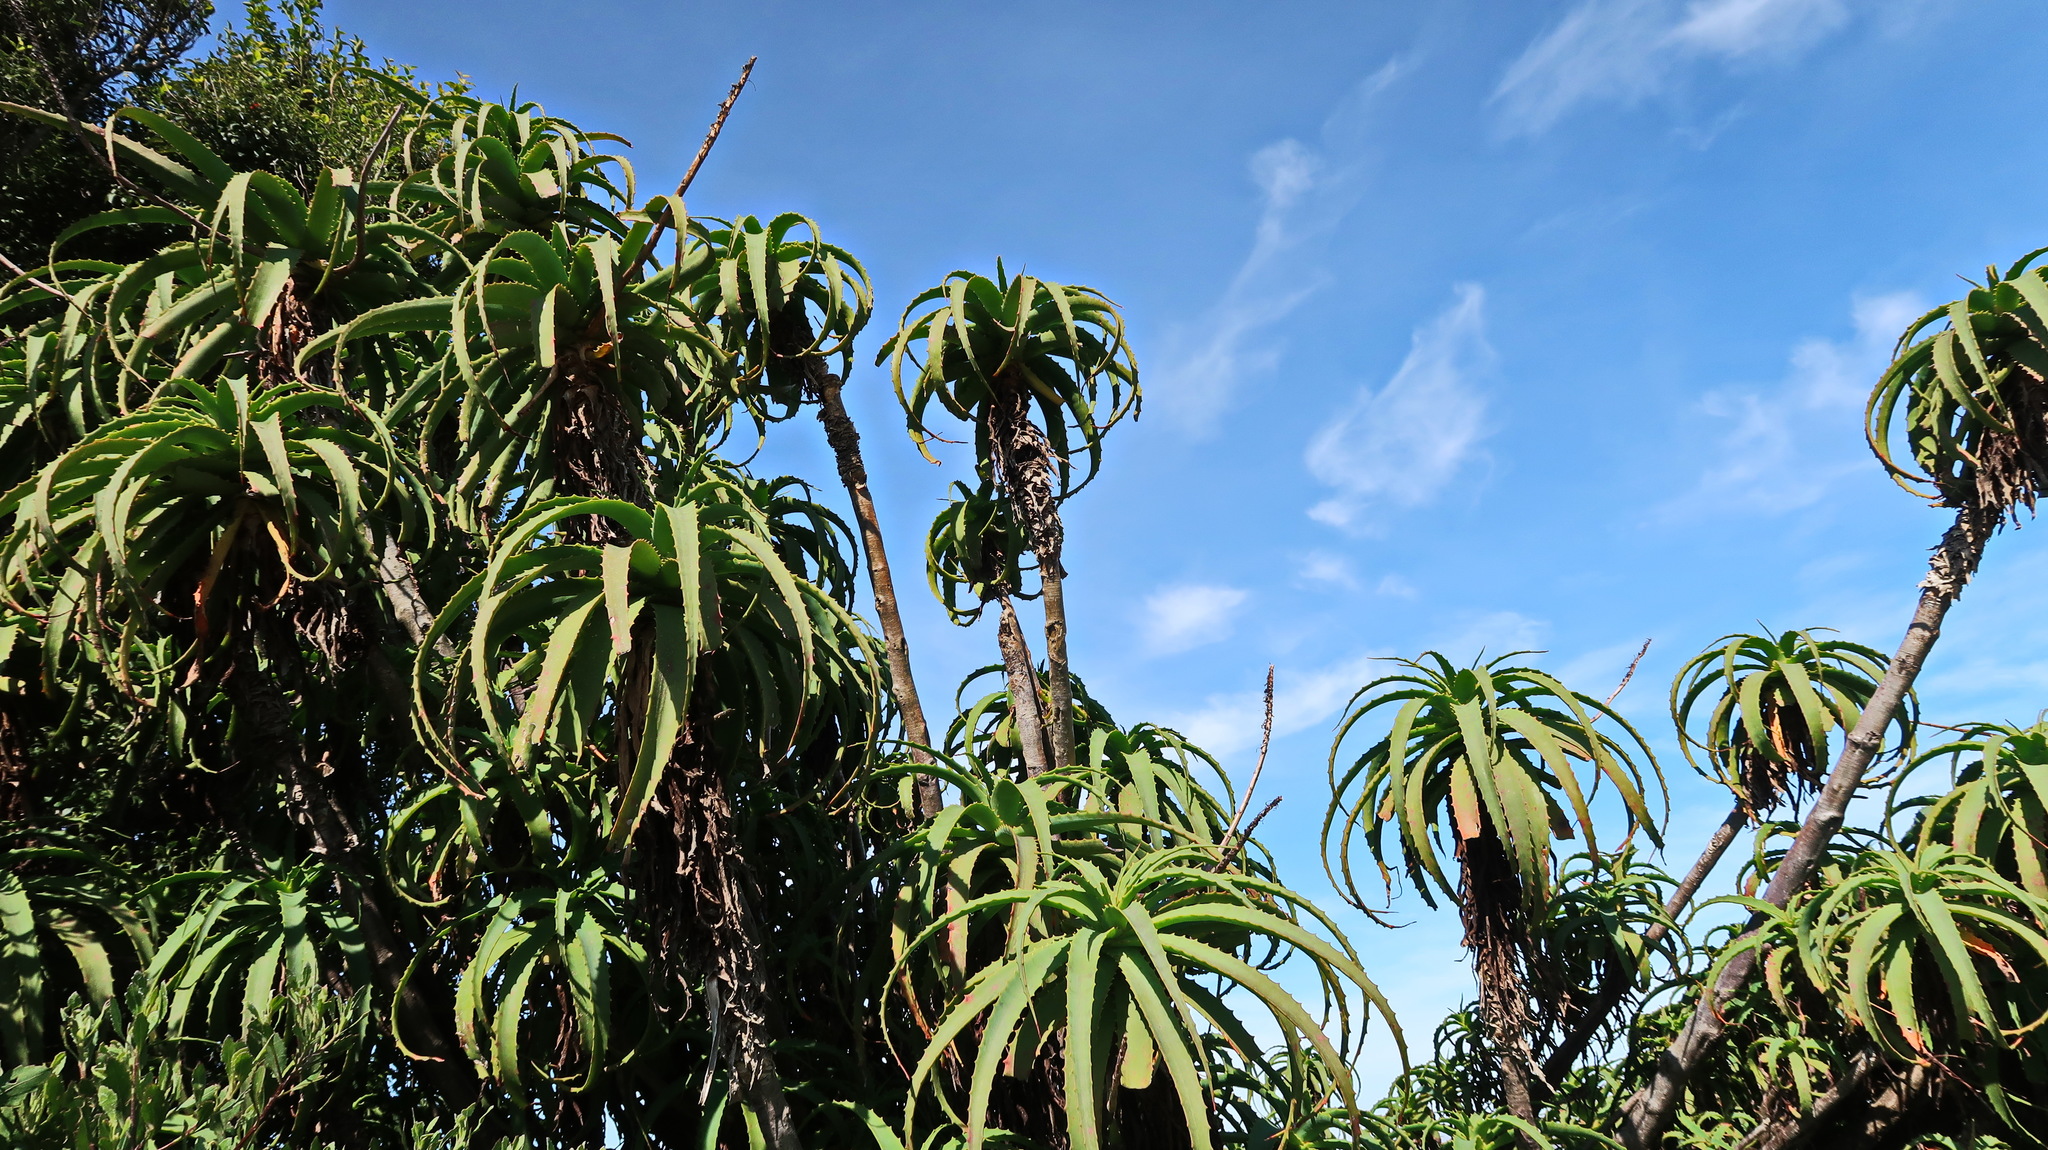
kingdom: Plantae
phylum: Tracheophyta
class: Liliopsida
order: Asparagales
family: Asphodelaceae
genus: Aloe
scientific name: Aloe arborescens
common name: Candelabra aloe
